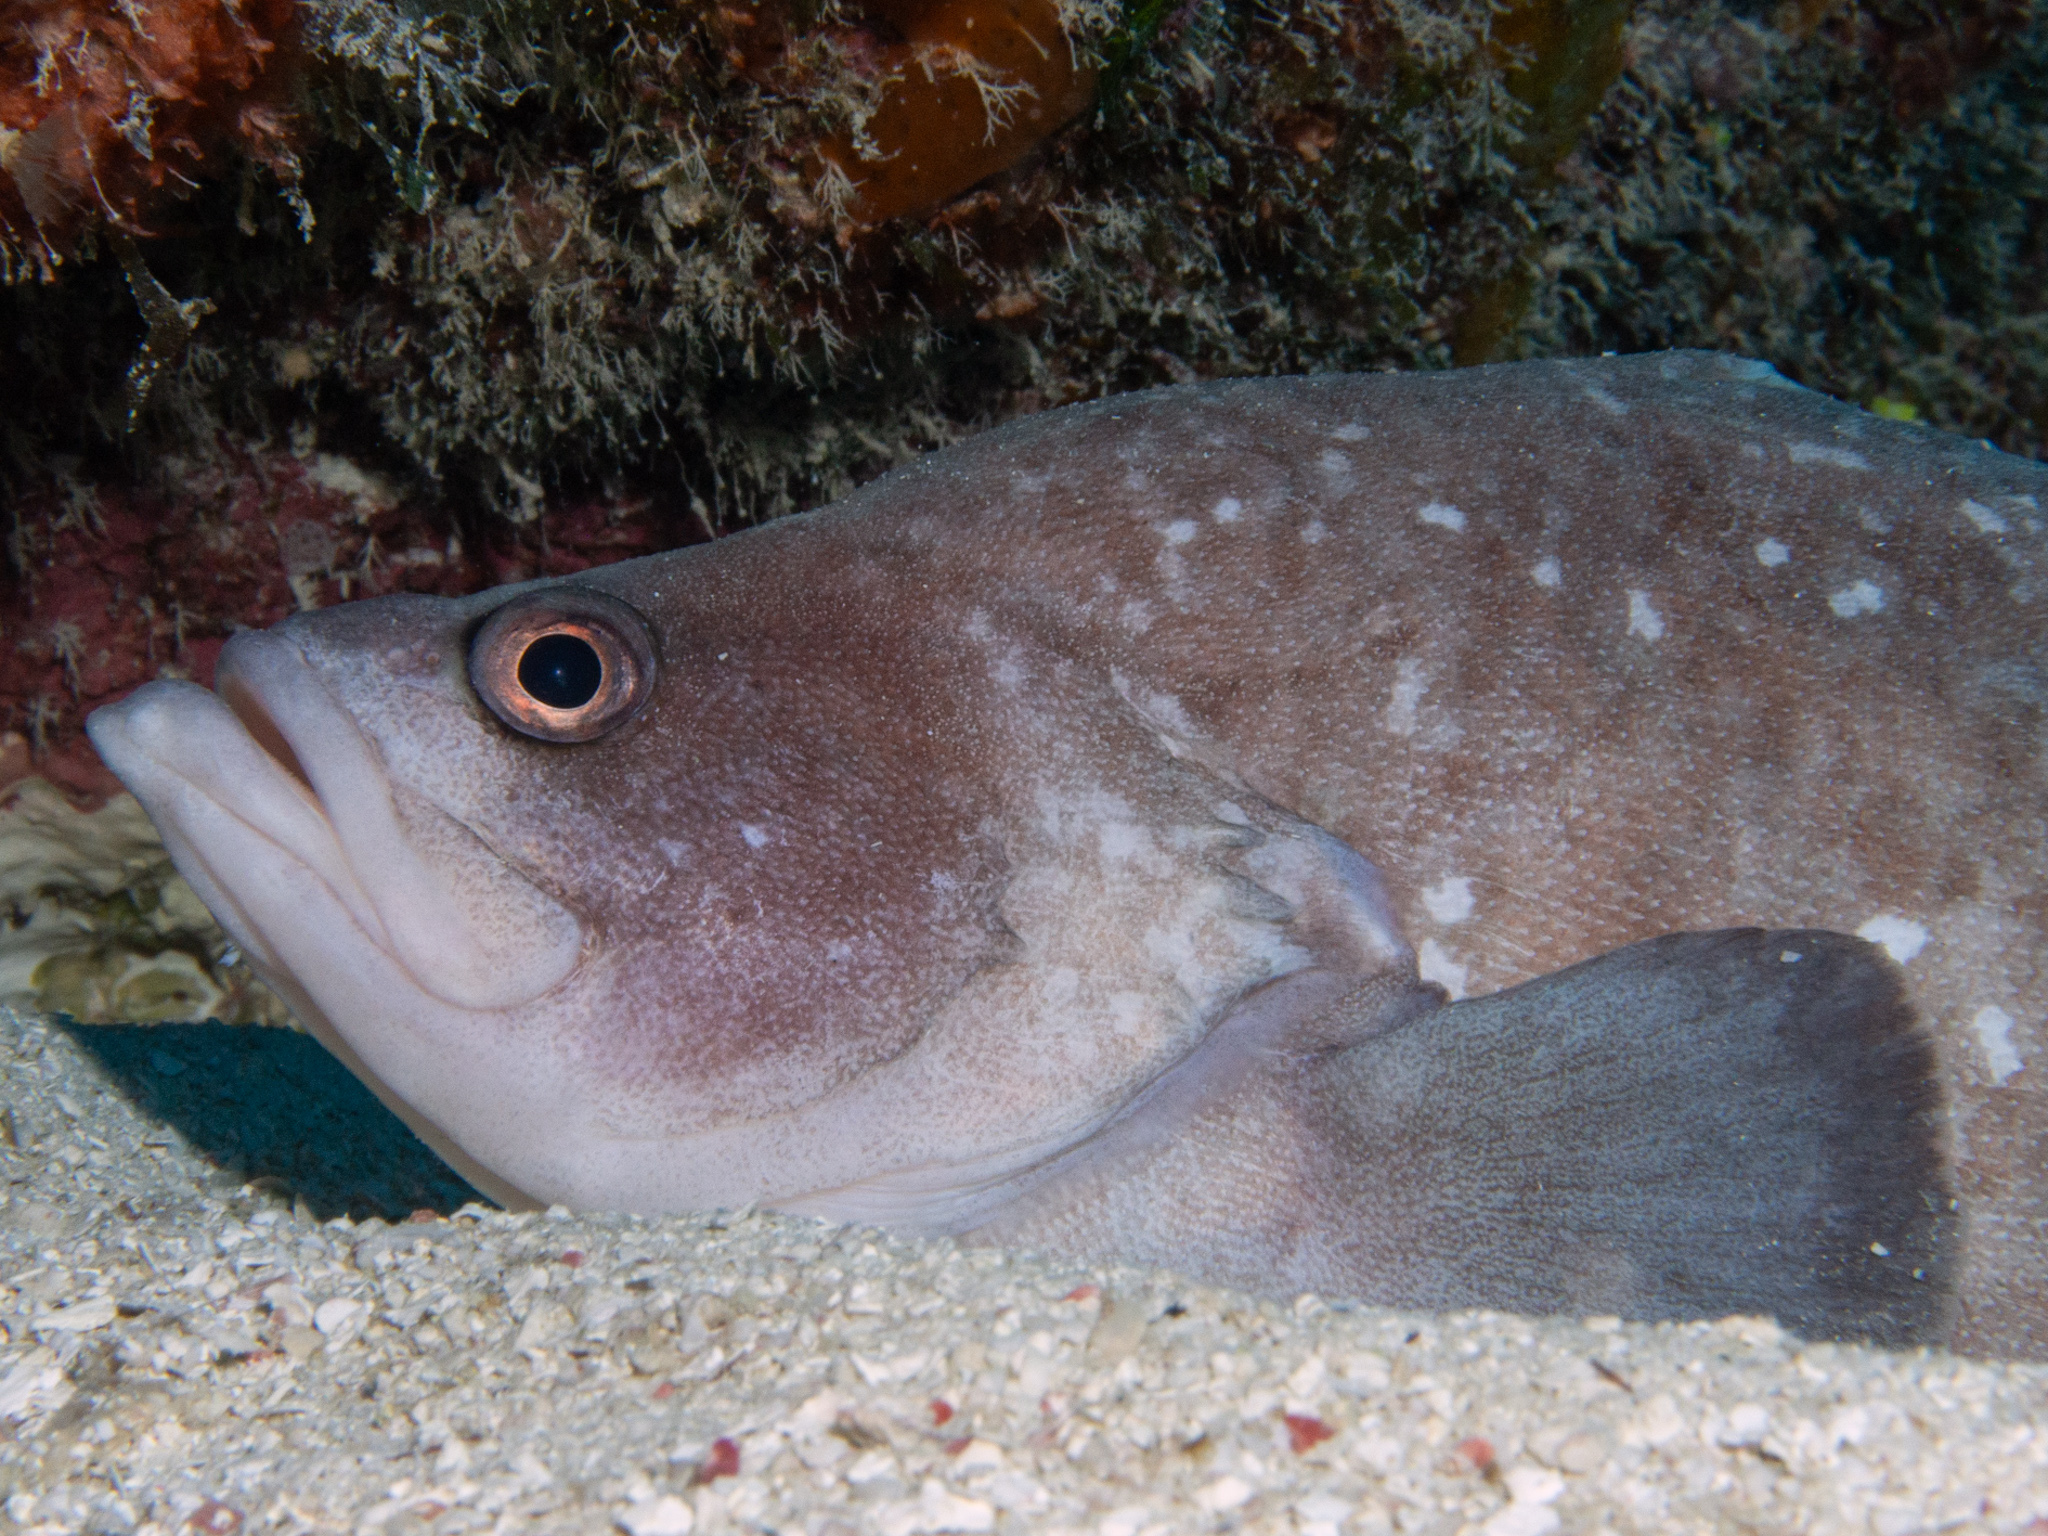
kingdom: Animalia
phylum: Chordata
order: Perciformes
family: Serranidae
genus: Rypticus
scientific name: Rypticus saponaceus
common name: Soapfish
